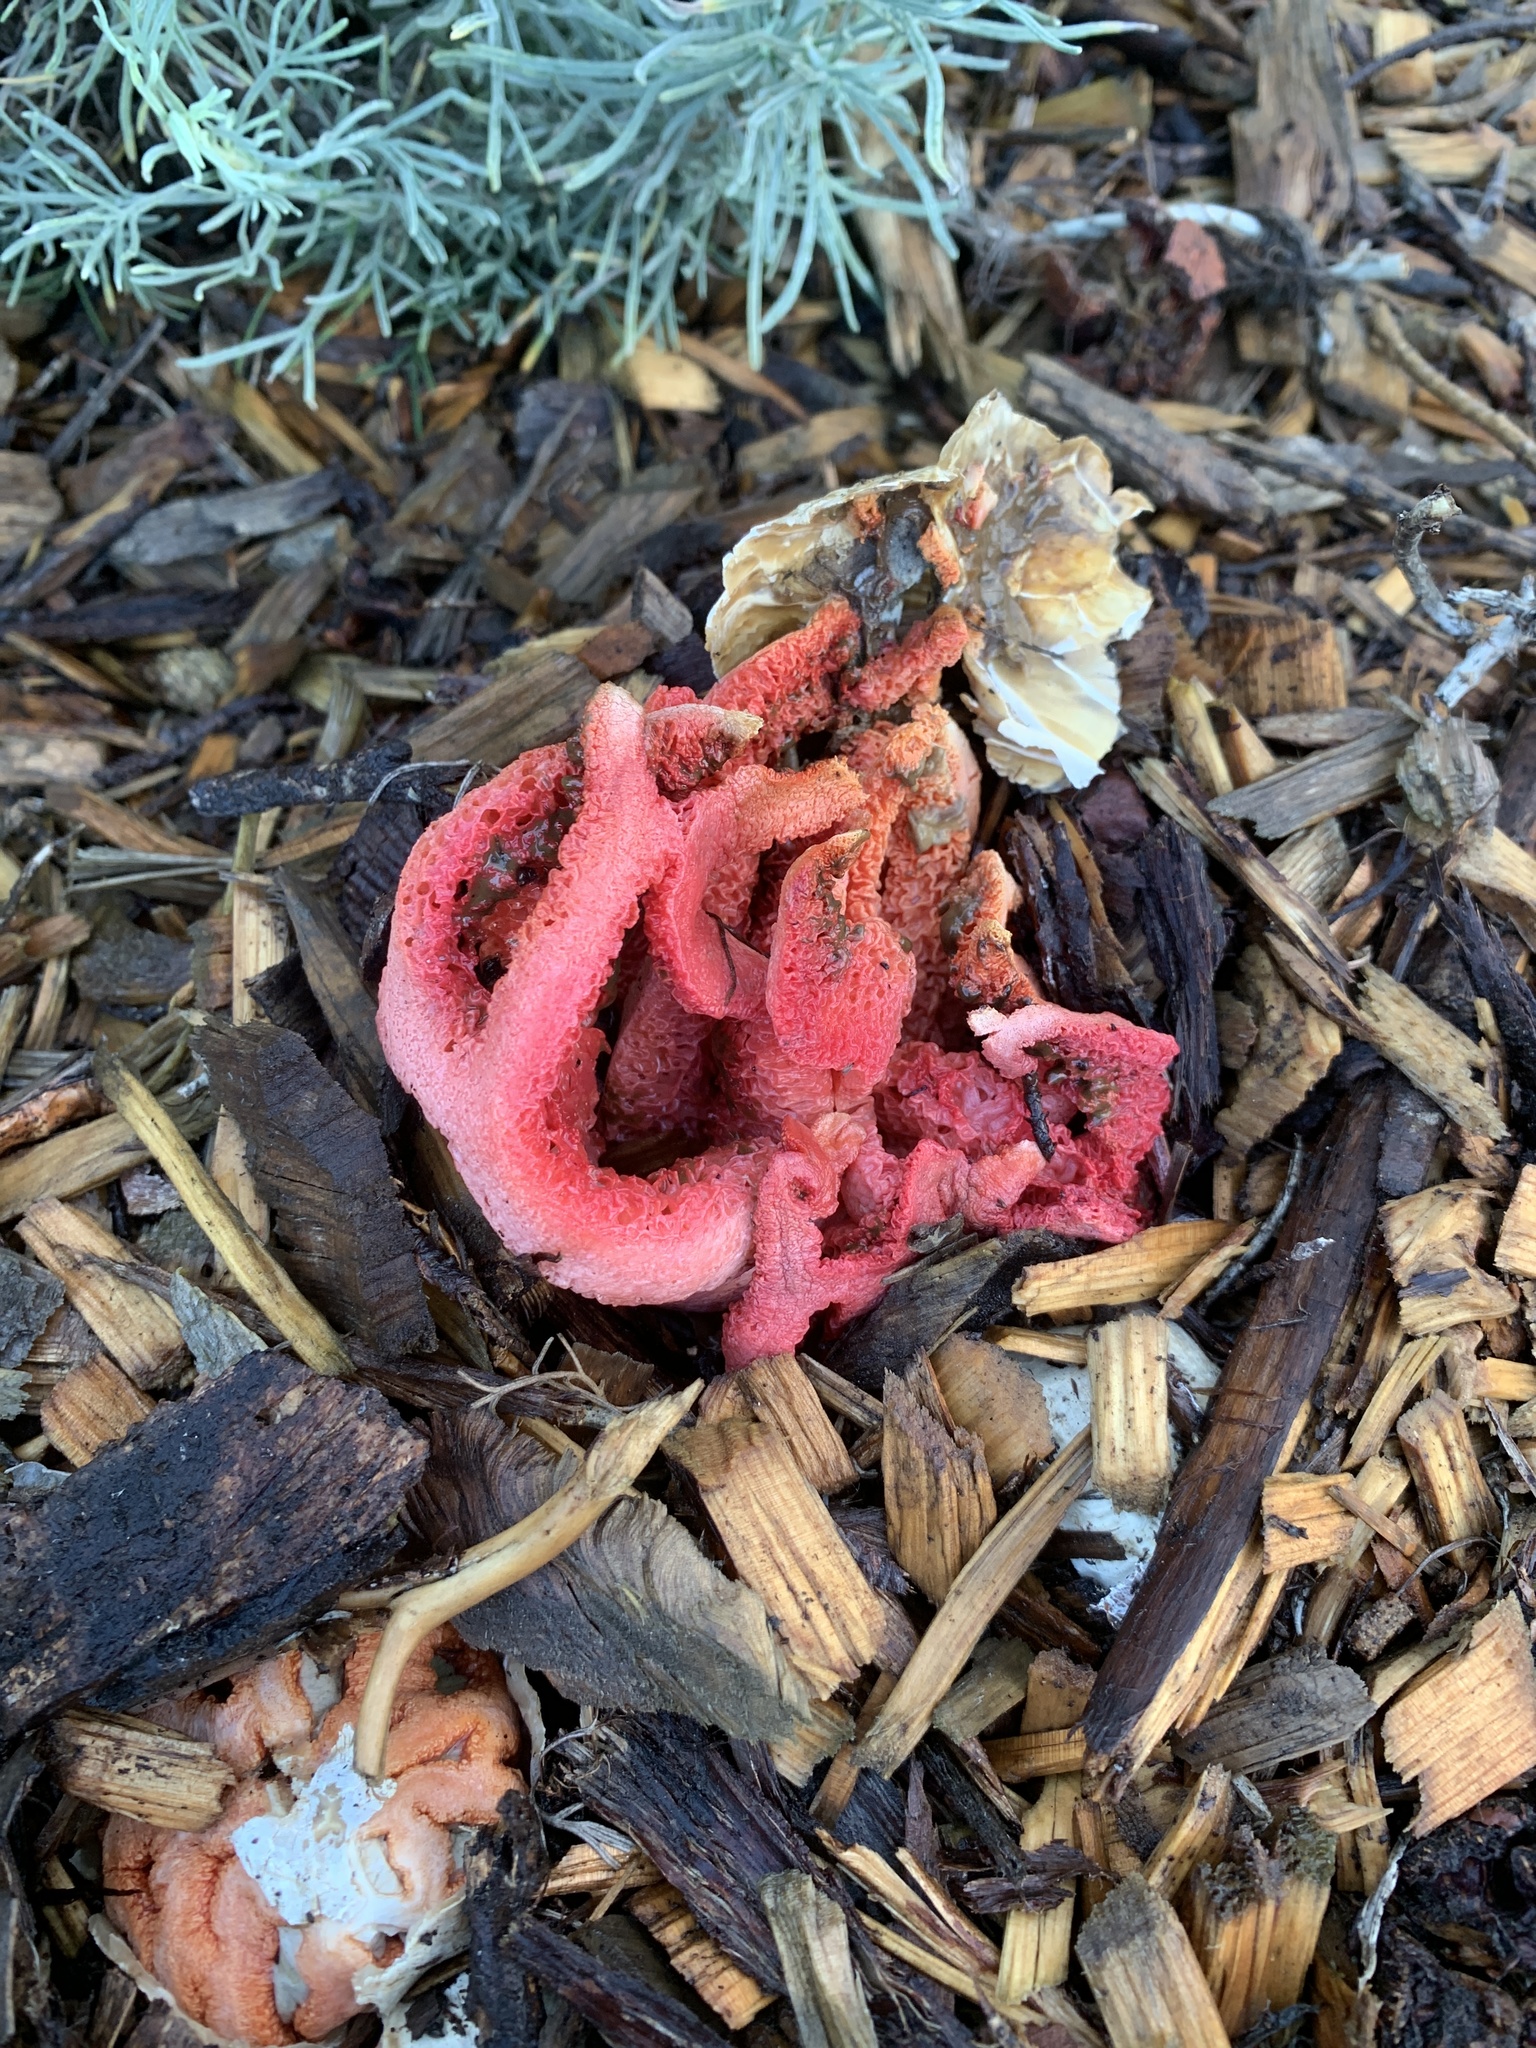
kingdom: Fungi
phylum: Basidiomycota
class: Agaricomycetes
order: Phallales
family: Phallaceae
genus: Clathrus
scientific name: Clathrus ruber
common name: Red cage
